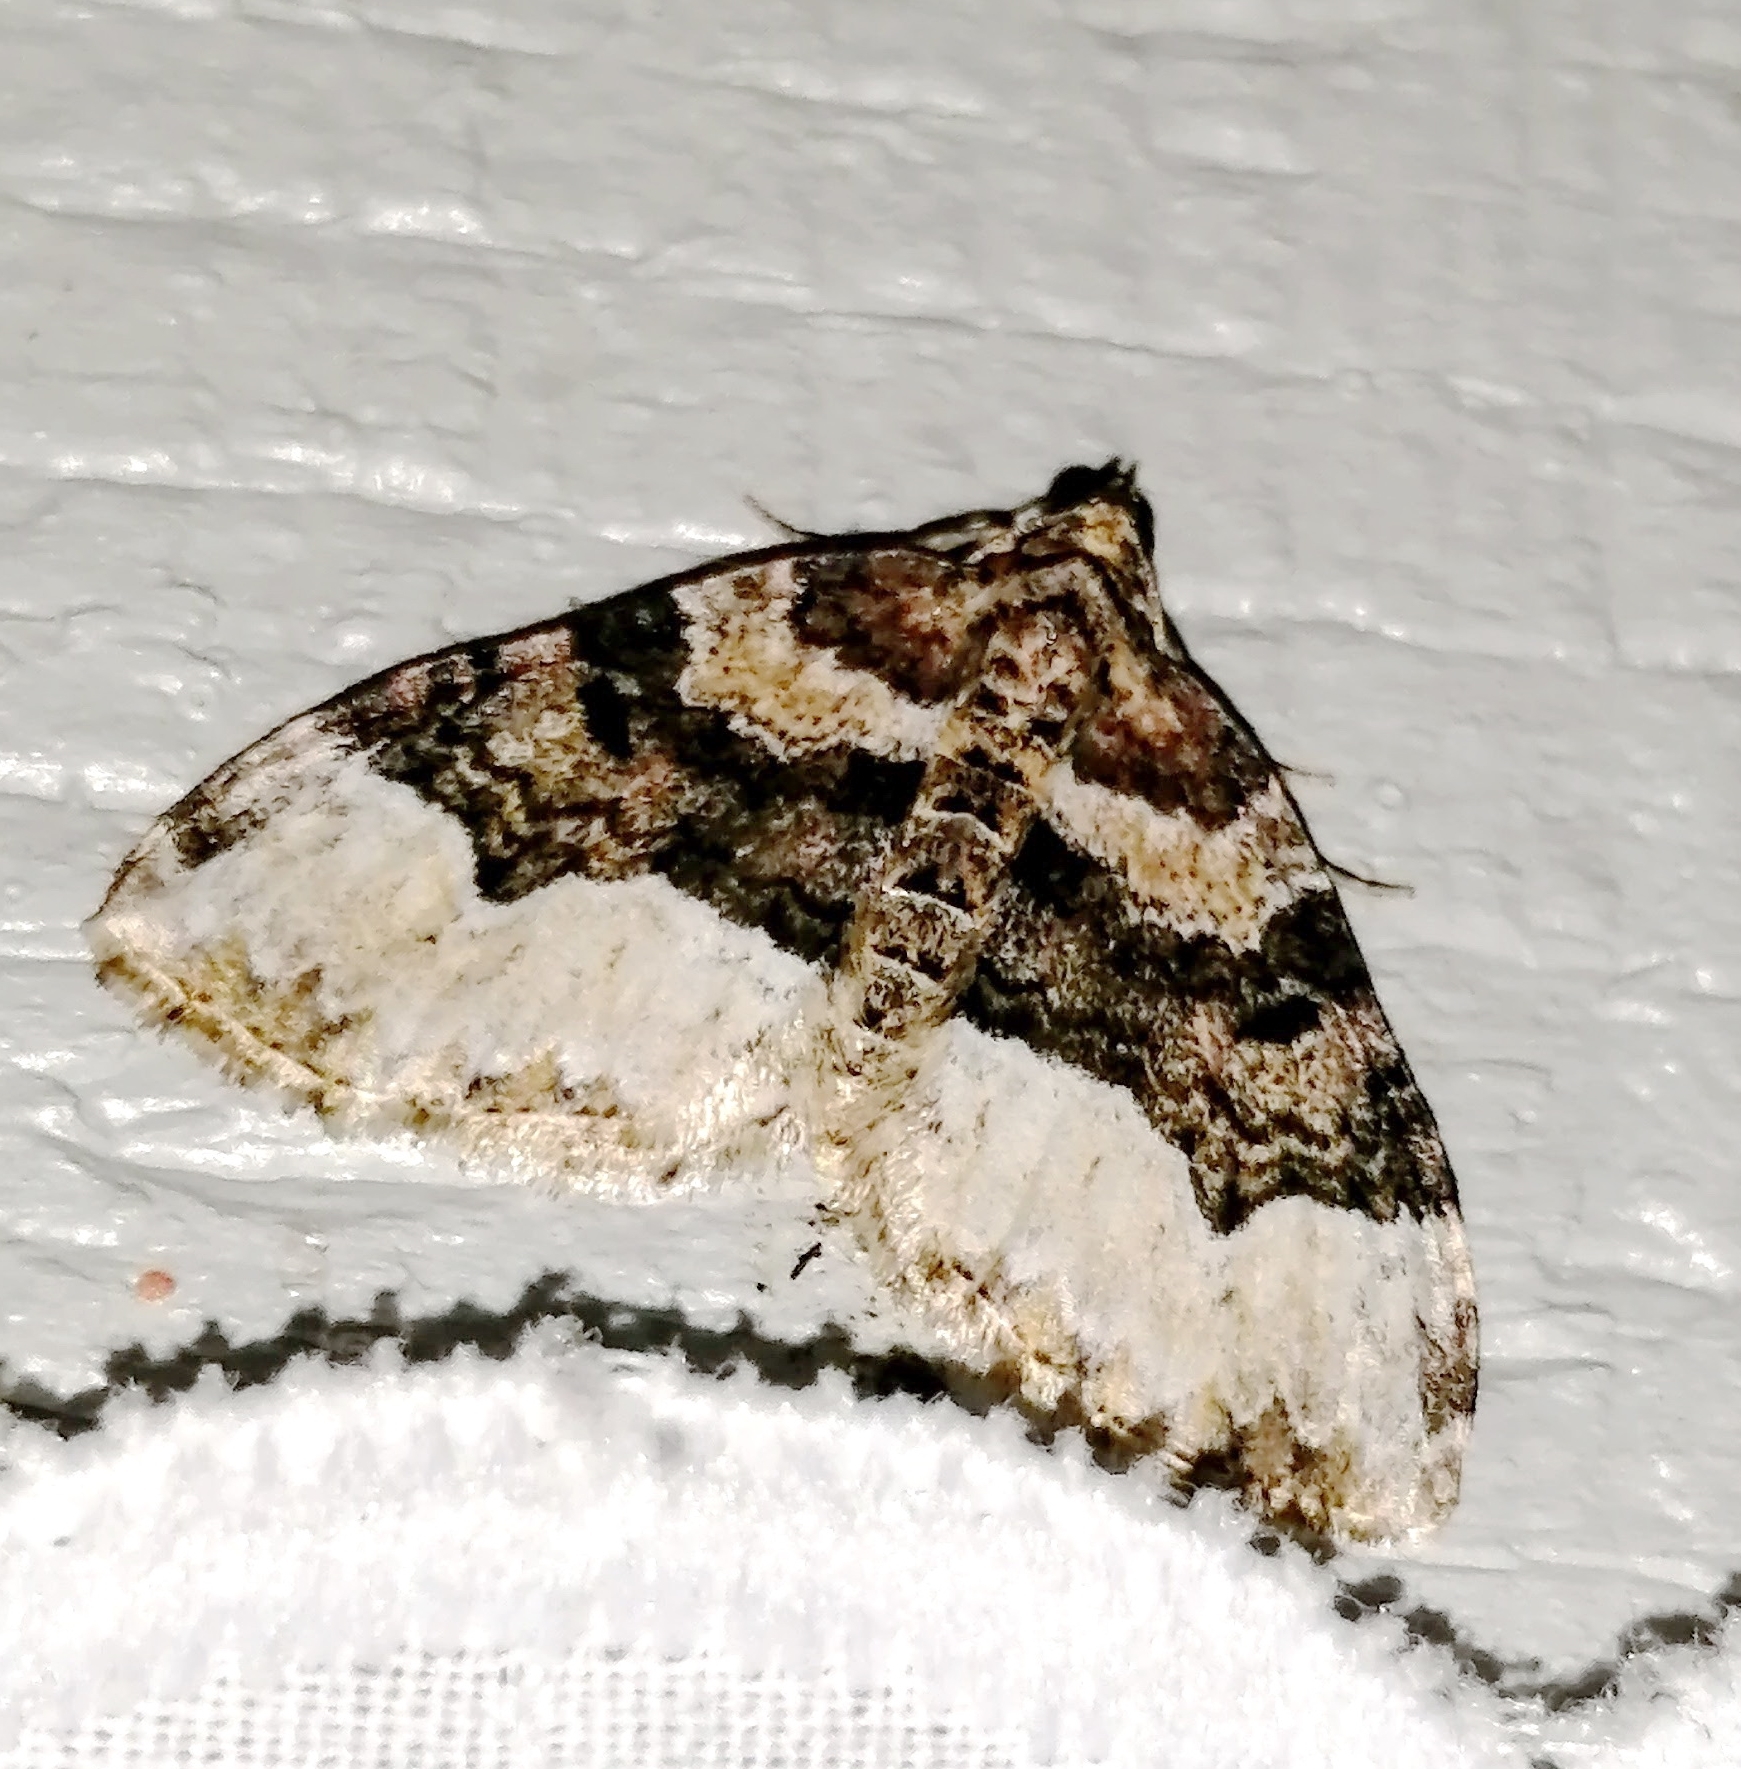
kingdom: Animalia
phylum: Arthropoda
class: Insecta
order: Lepidoptera
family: Geometridae
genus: Euphyia
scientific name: Euphyia intermediata
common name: Sharp-angled carpet
